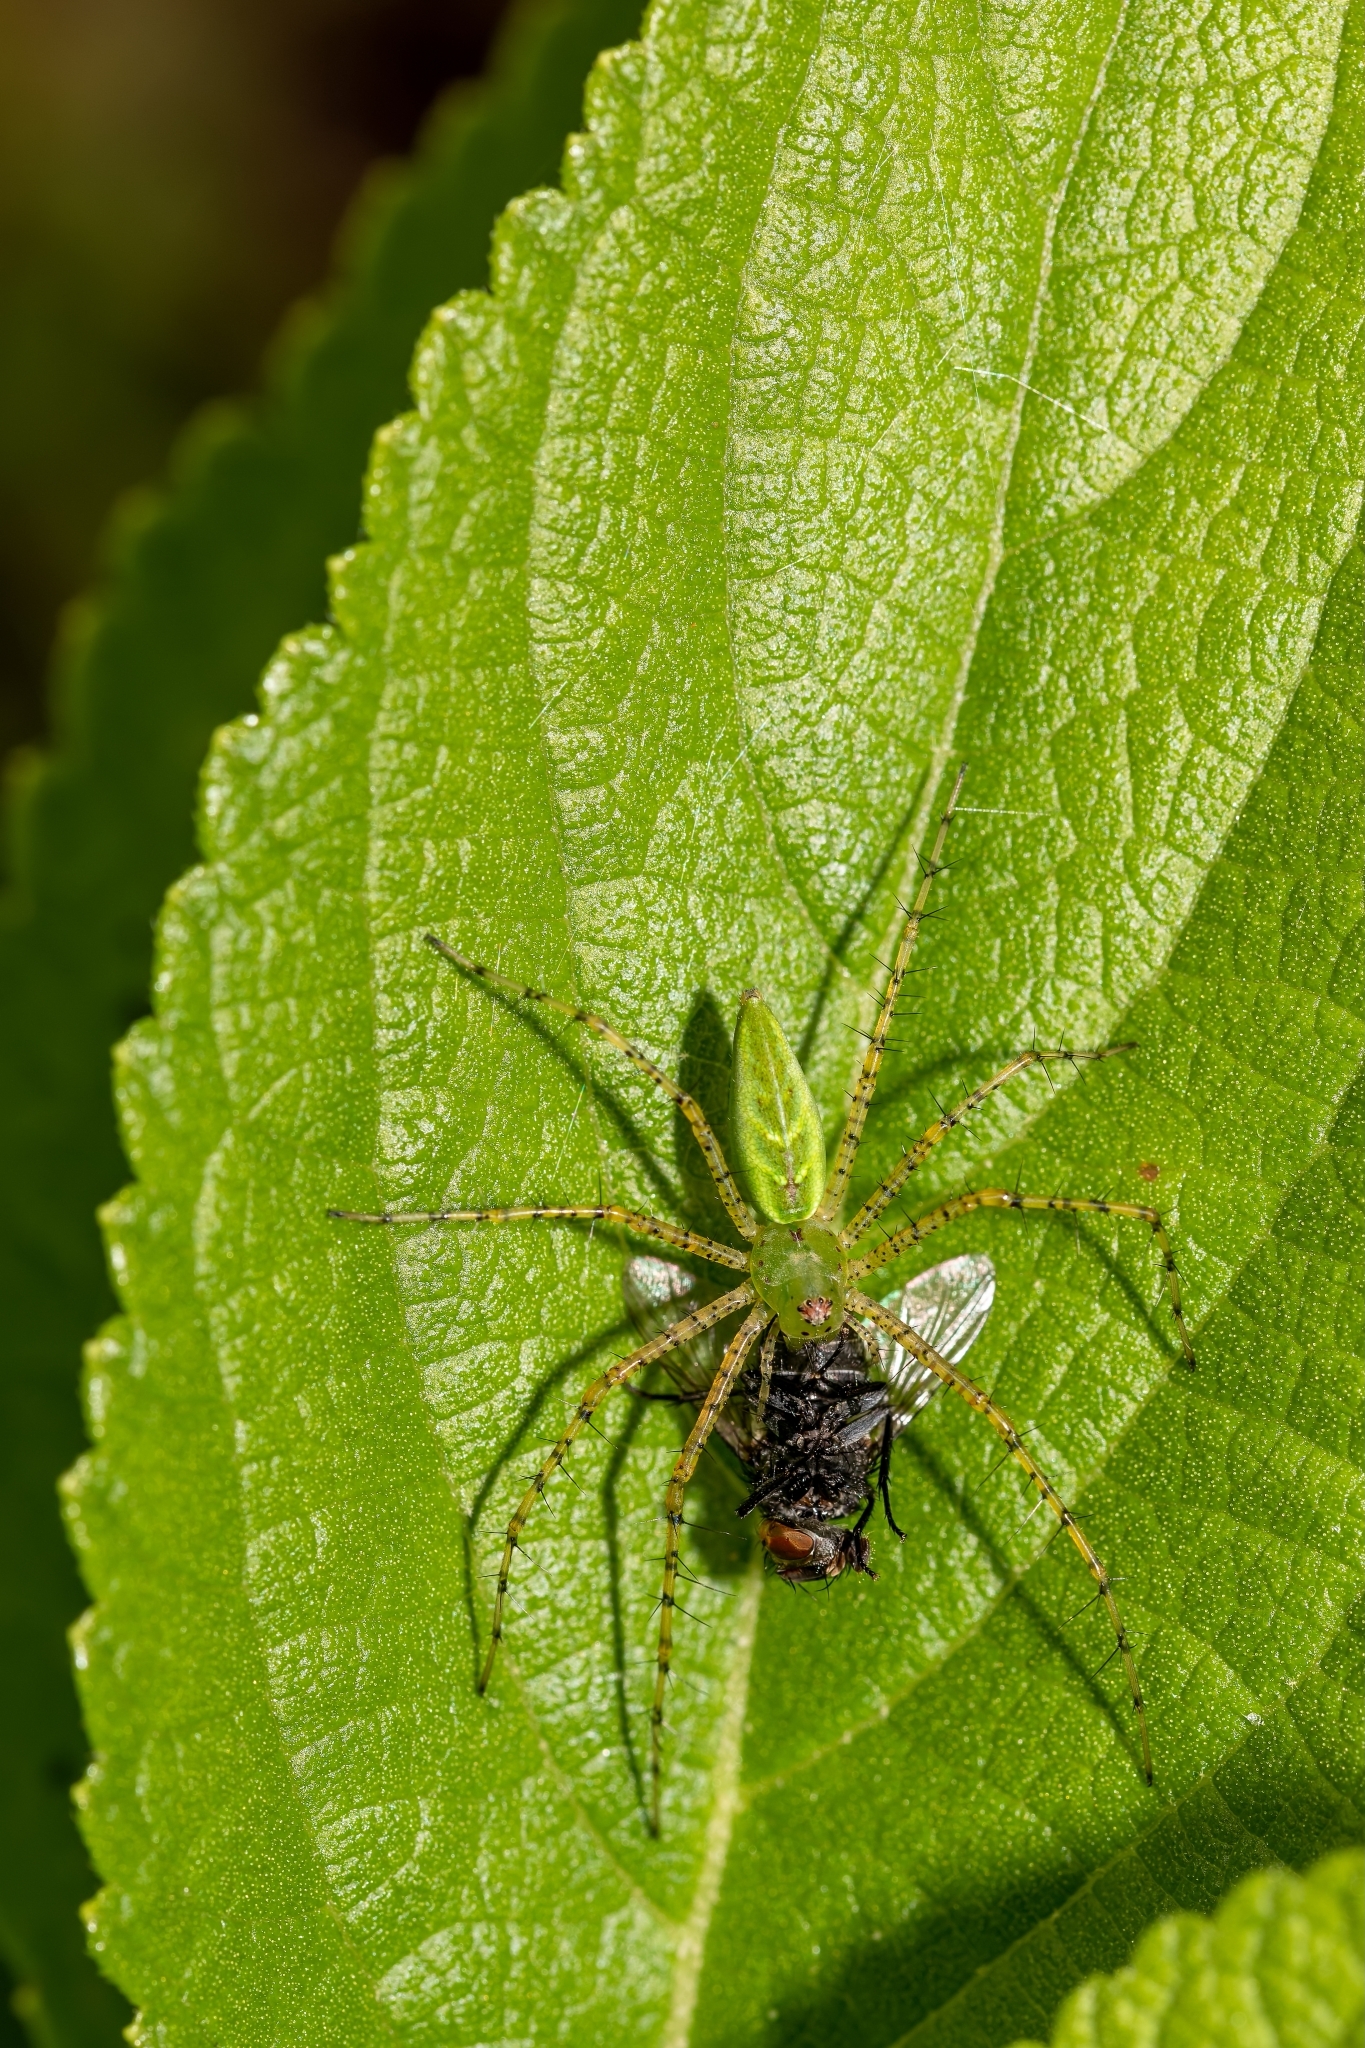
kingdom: Animalia
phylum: Arthropoda
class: Arachnida
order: Araneae
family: Oxyopidae
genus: Peucetia
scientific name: Peucetia viridans
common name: Lynx spiders
